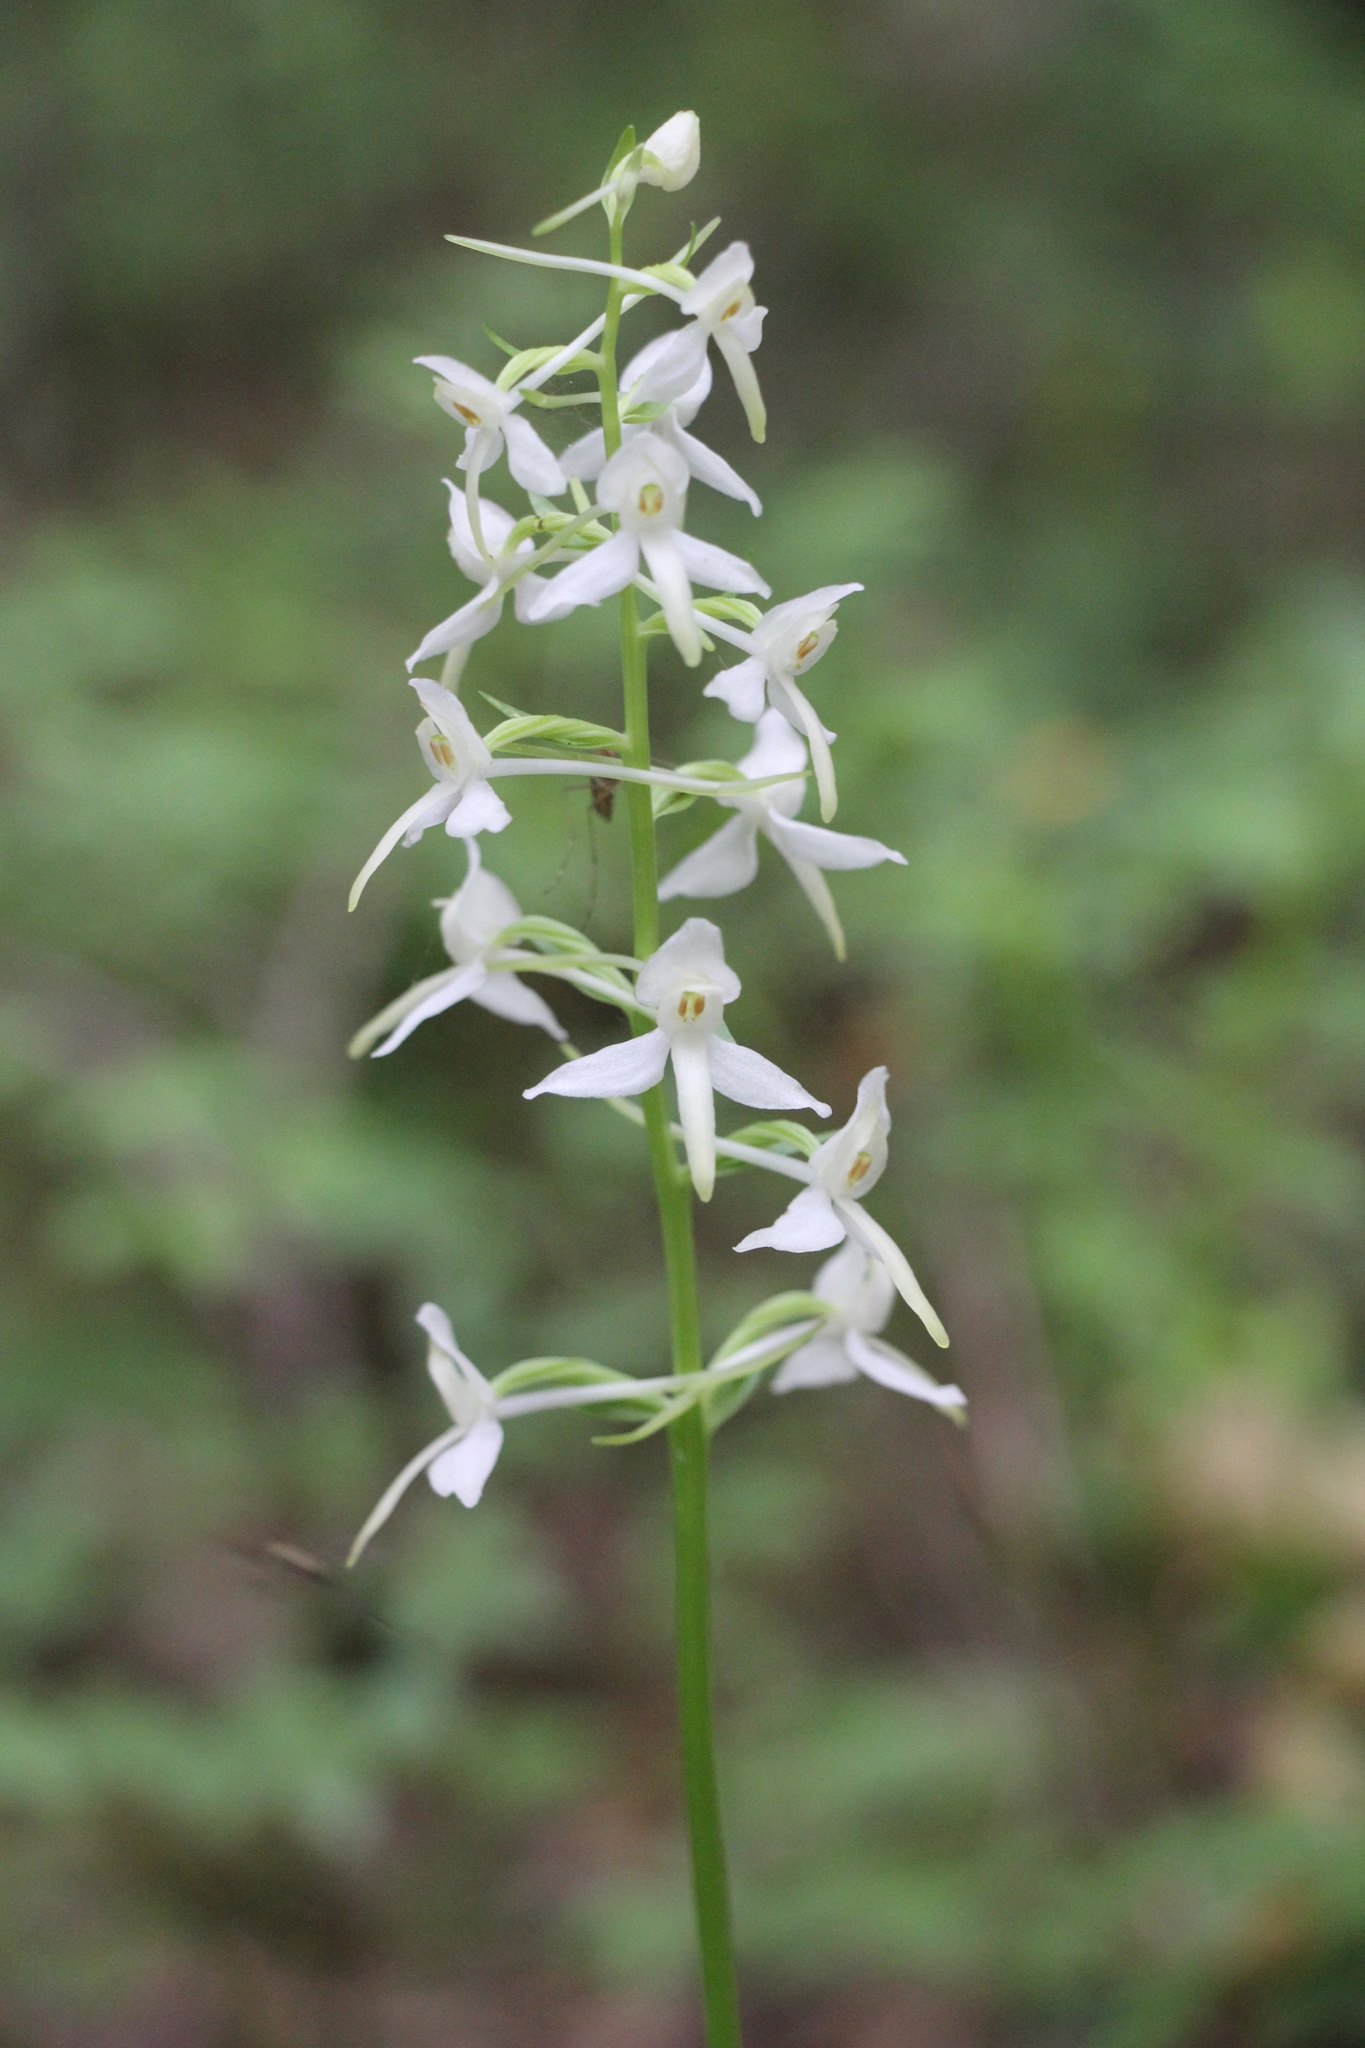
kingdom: Plantae
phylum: Tracheophyta
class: Liliopsida
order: Asparagales
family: Orchidaceae
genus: Platanthera
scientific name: Platanthera bifolia
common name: Lesser butterfly-orchid
